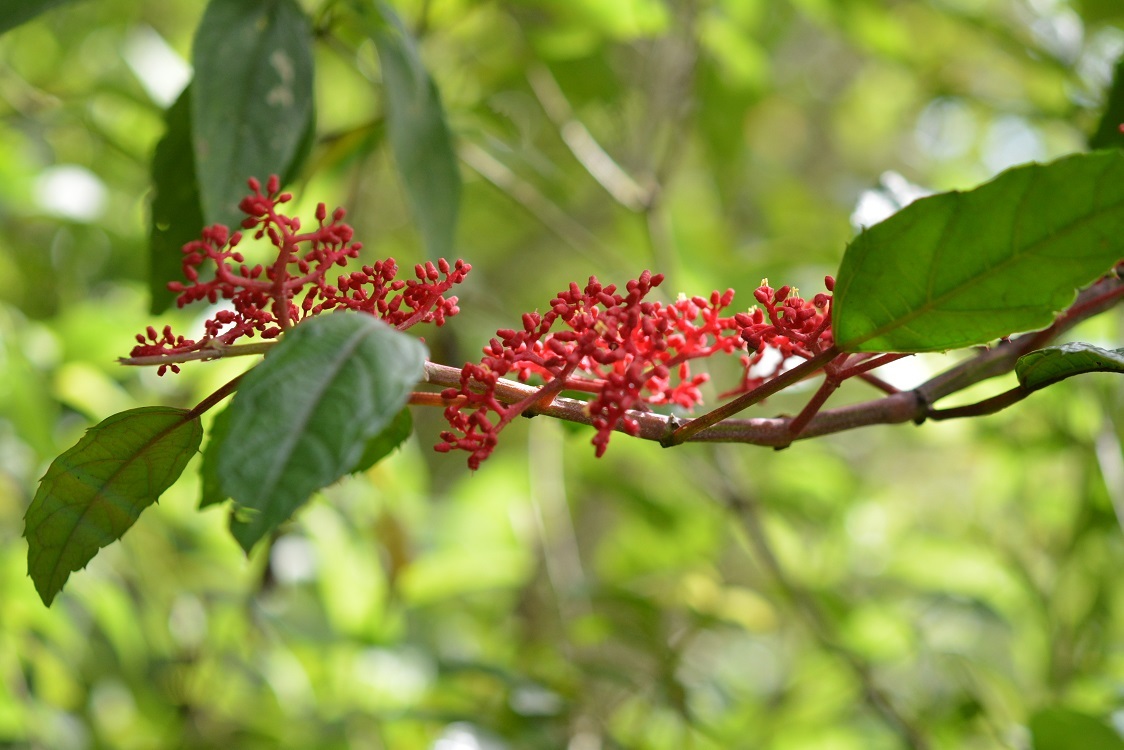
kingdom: Plantae
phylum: Tracheophyta
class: Magnoliopsida
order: Vitales
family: Vitaceae
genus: Cissus
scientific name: Cissus biformifolia
